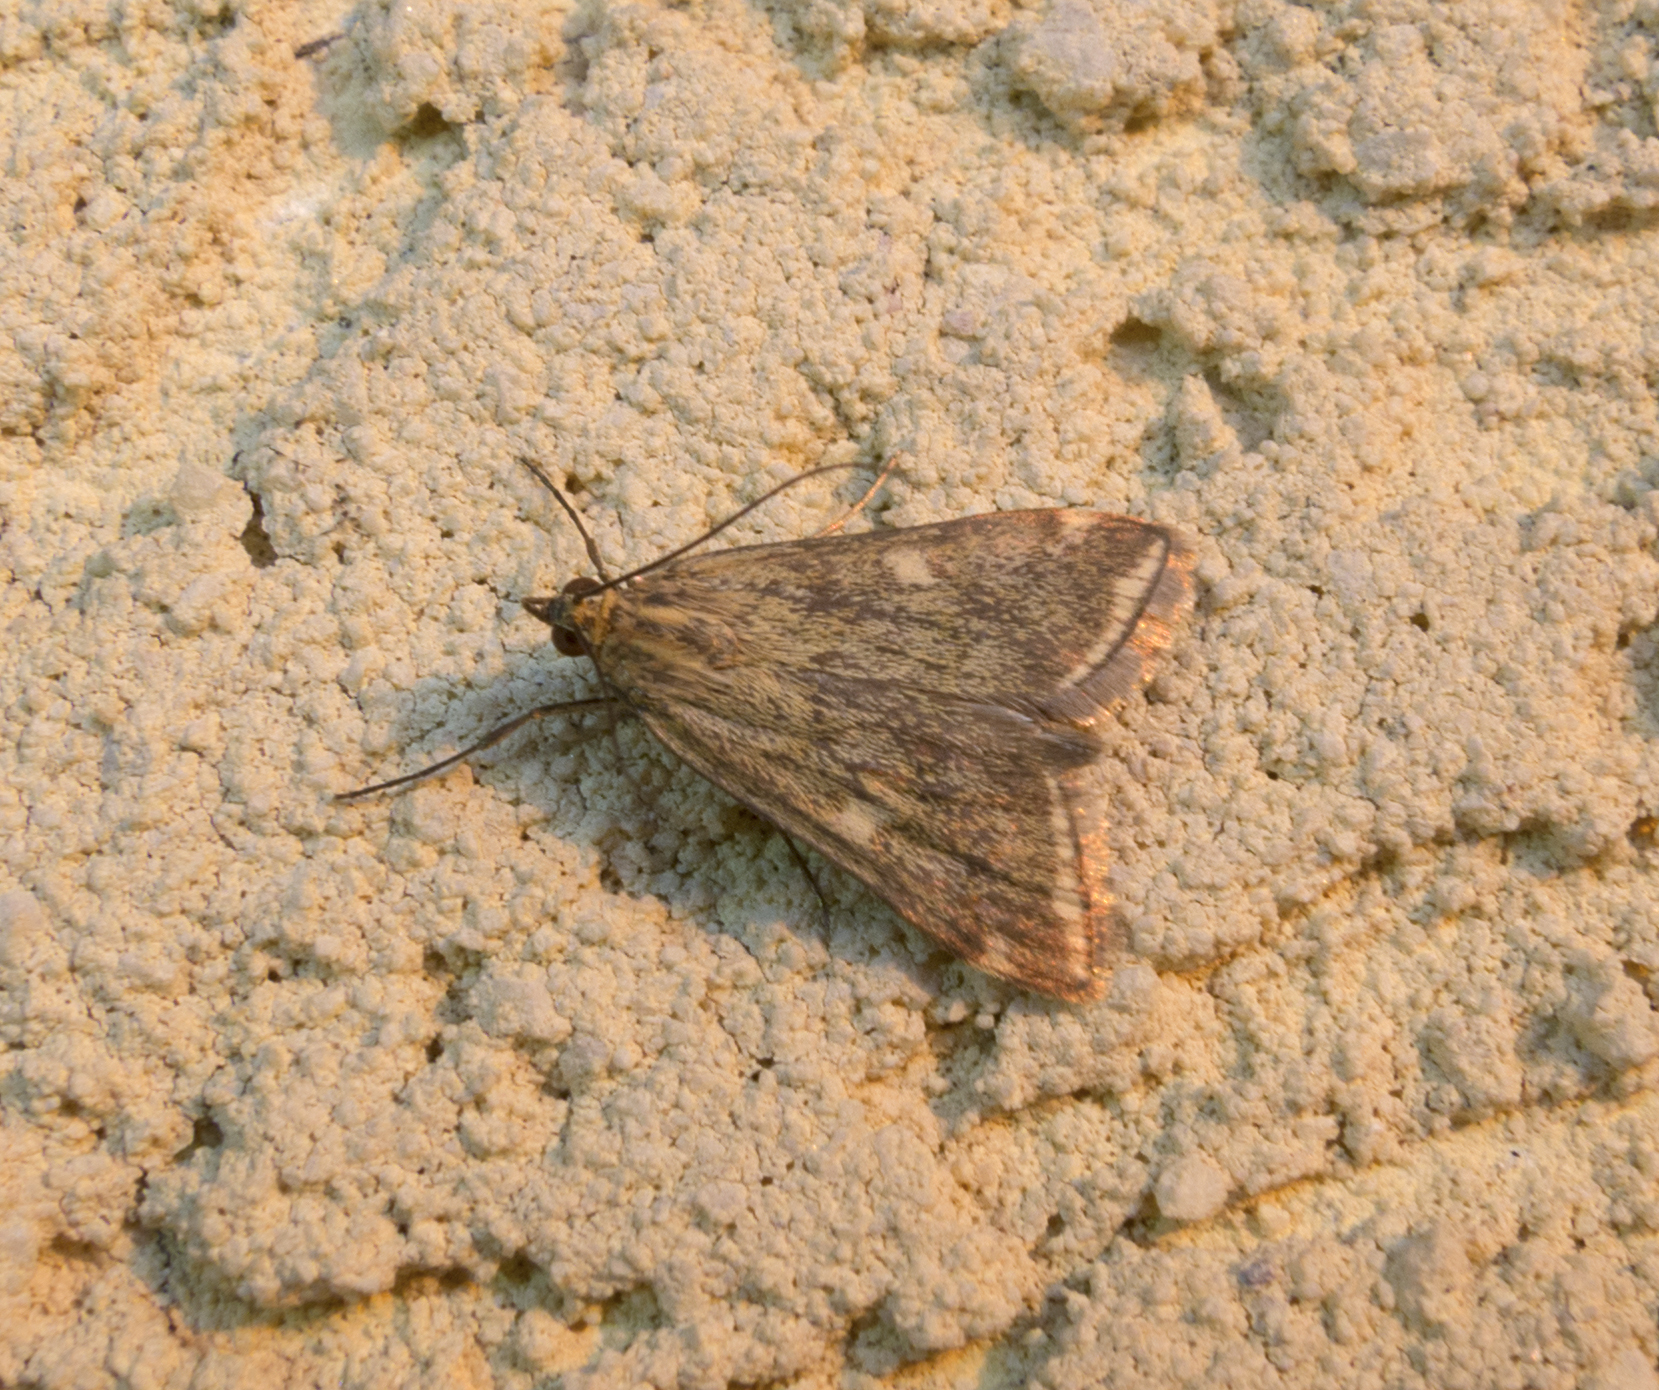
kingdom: Animalia
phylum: Arthropoda
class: Insecta
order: Lepidoptera
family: Crambidae
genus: Loxostege
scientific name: Loxostege sticticalis
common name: Crambid moth
